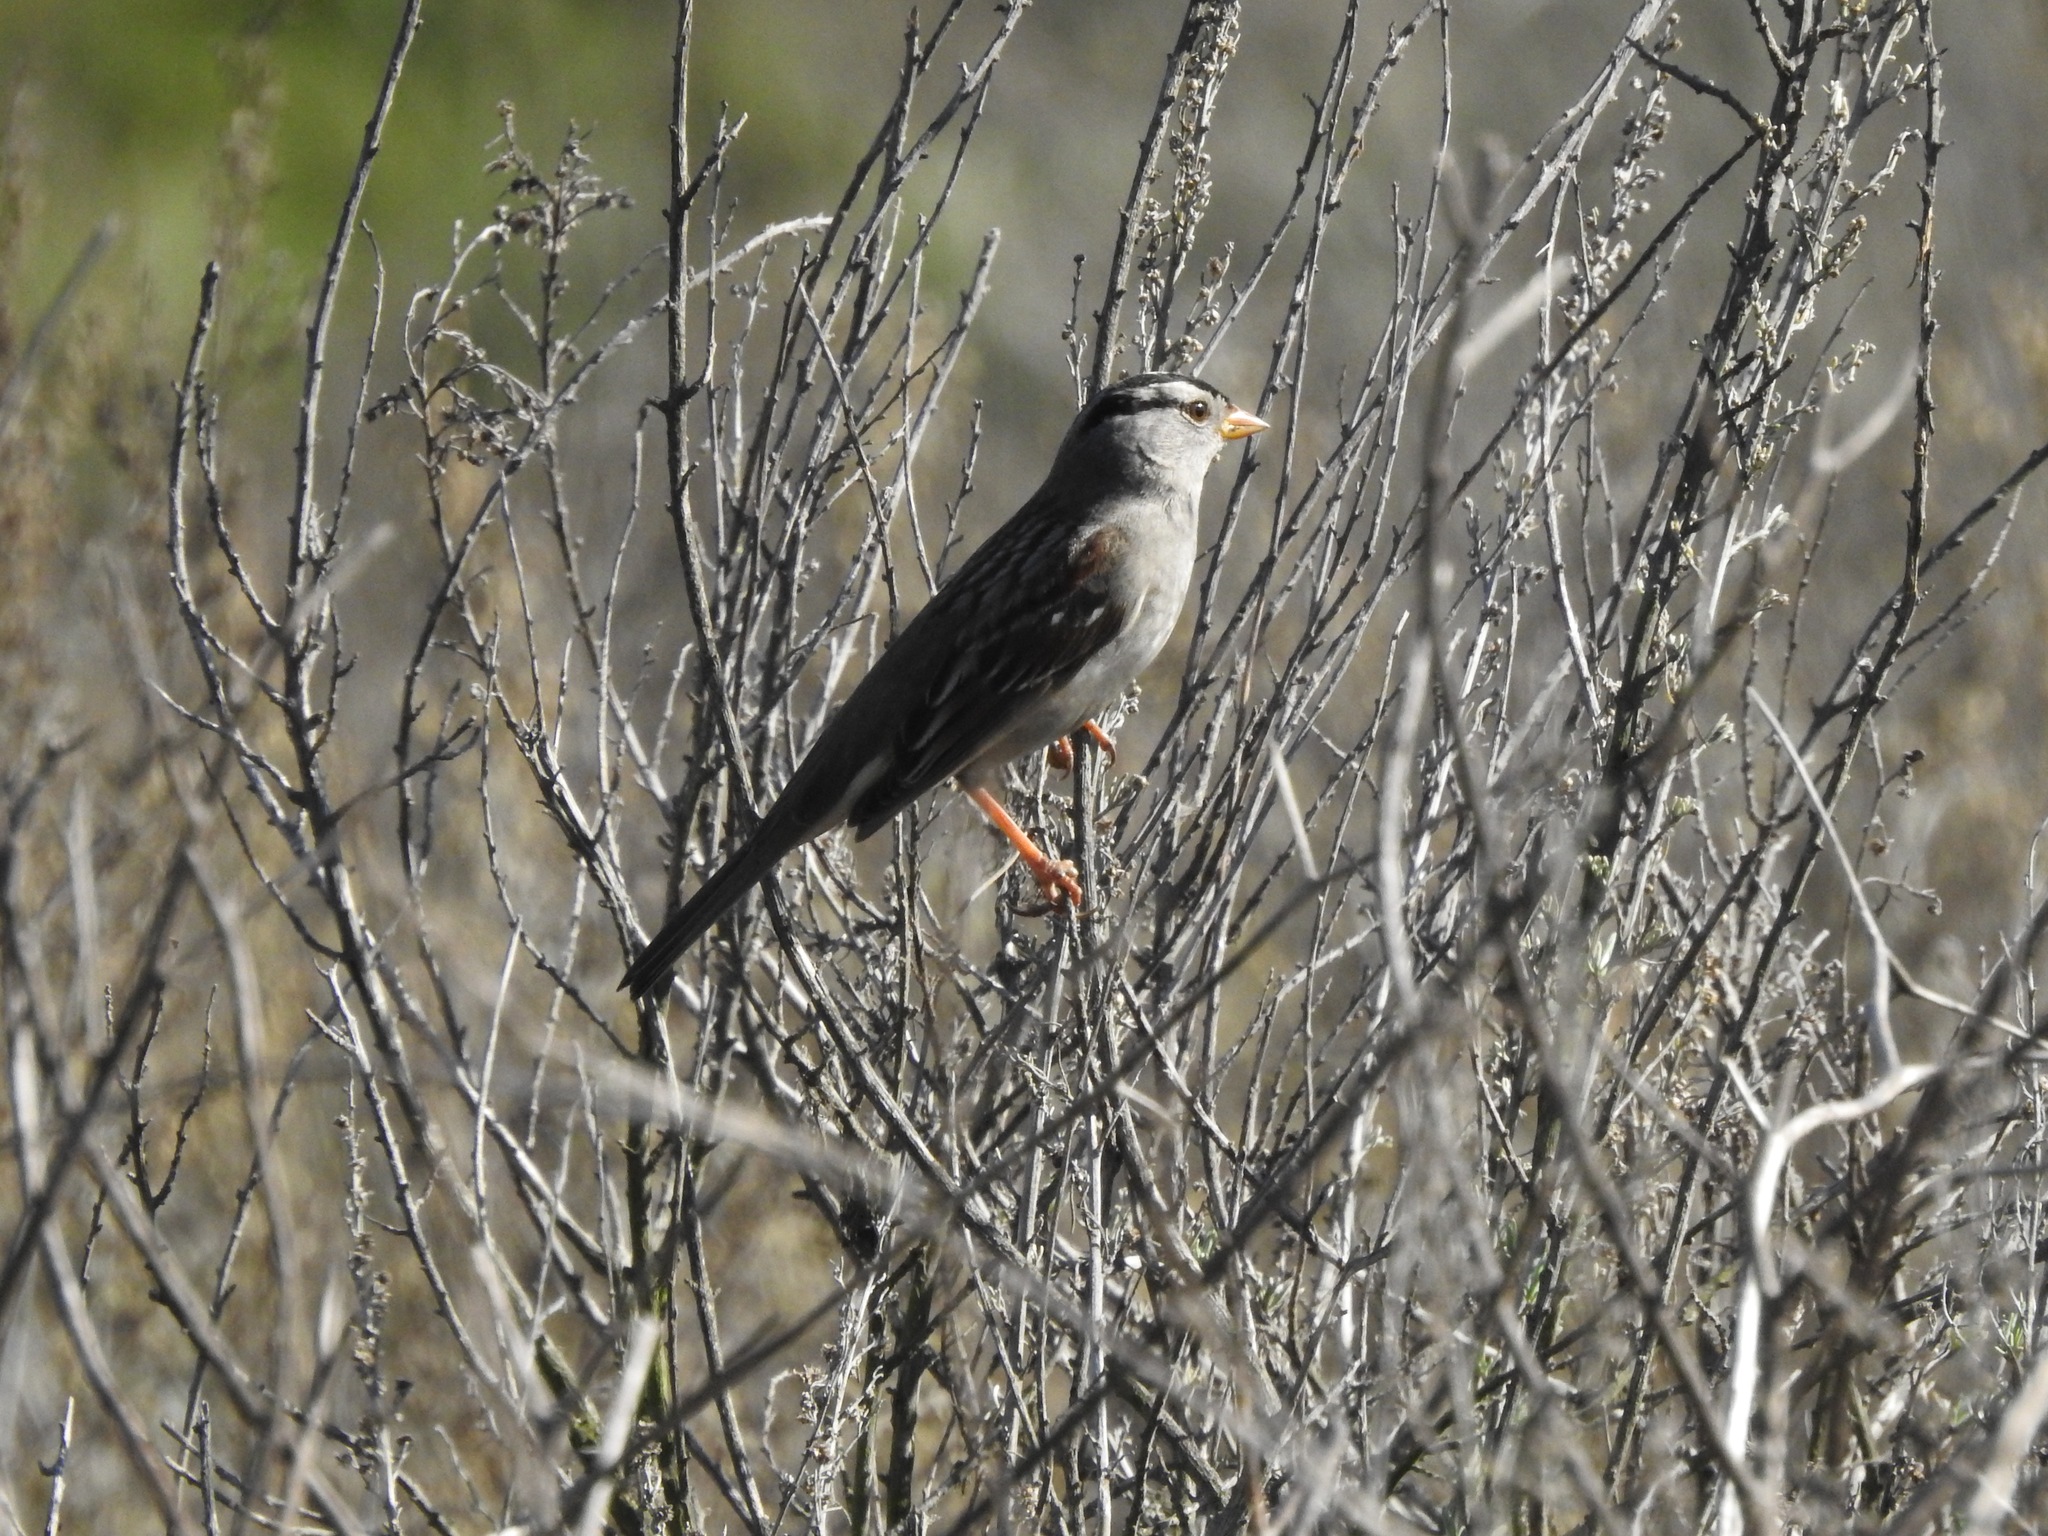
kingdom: Animalia
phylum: Chordata
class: Aves
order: Passeriformes
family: Passerellidae
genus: Zonotrichia
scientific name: Zonotrichia leucophrys
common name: White-crowned sparrow
